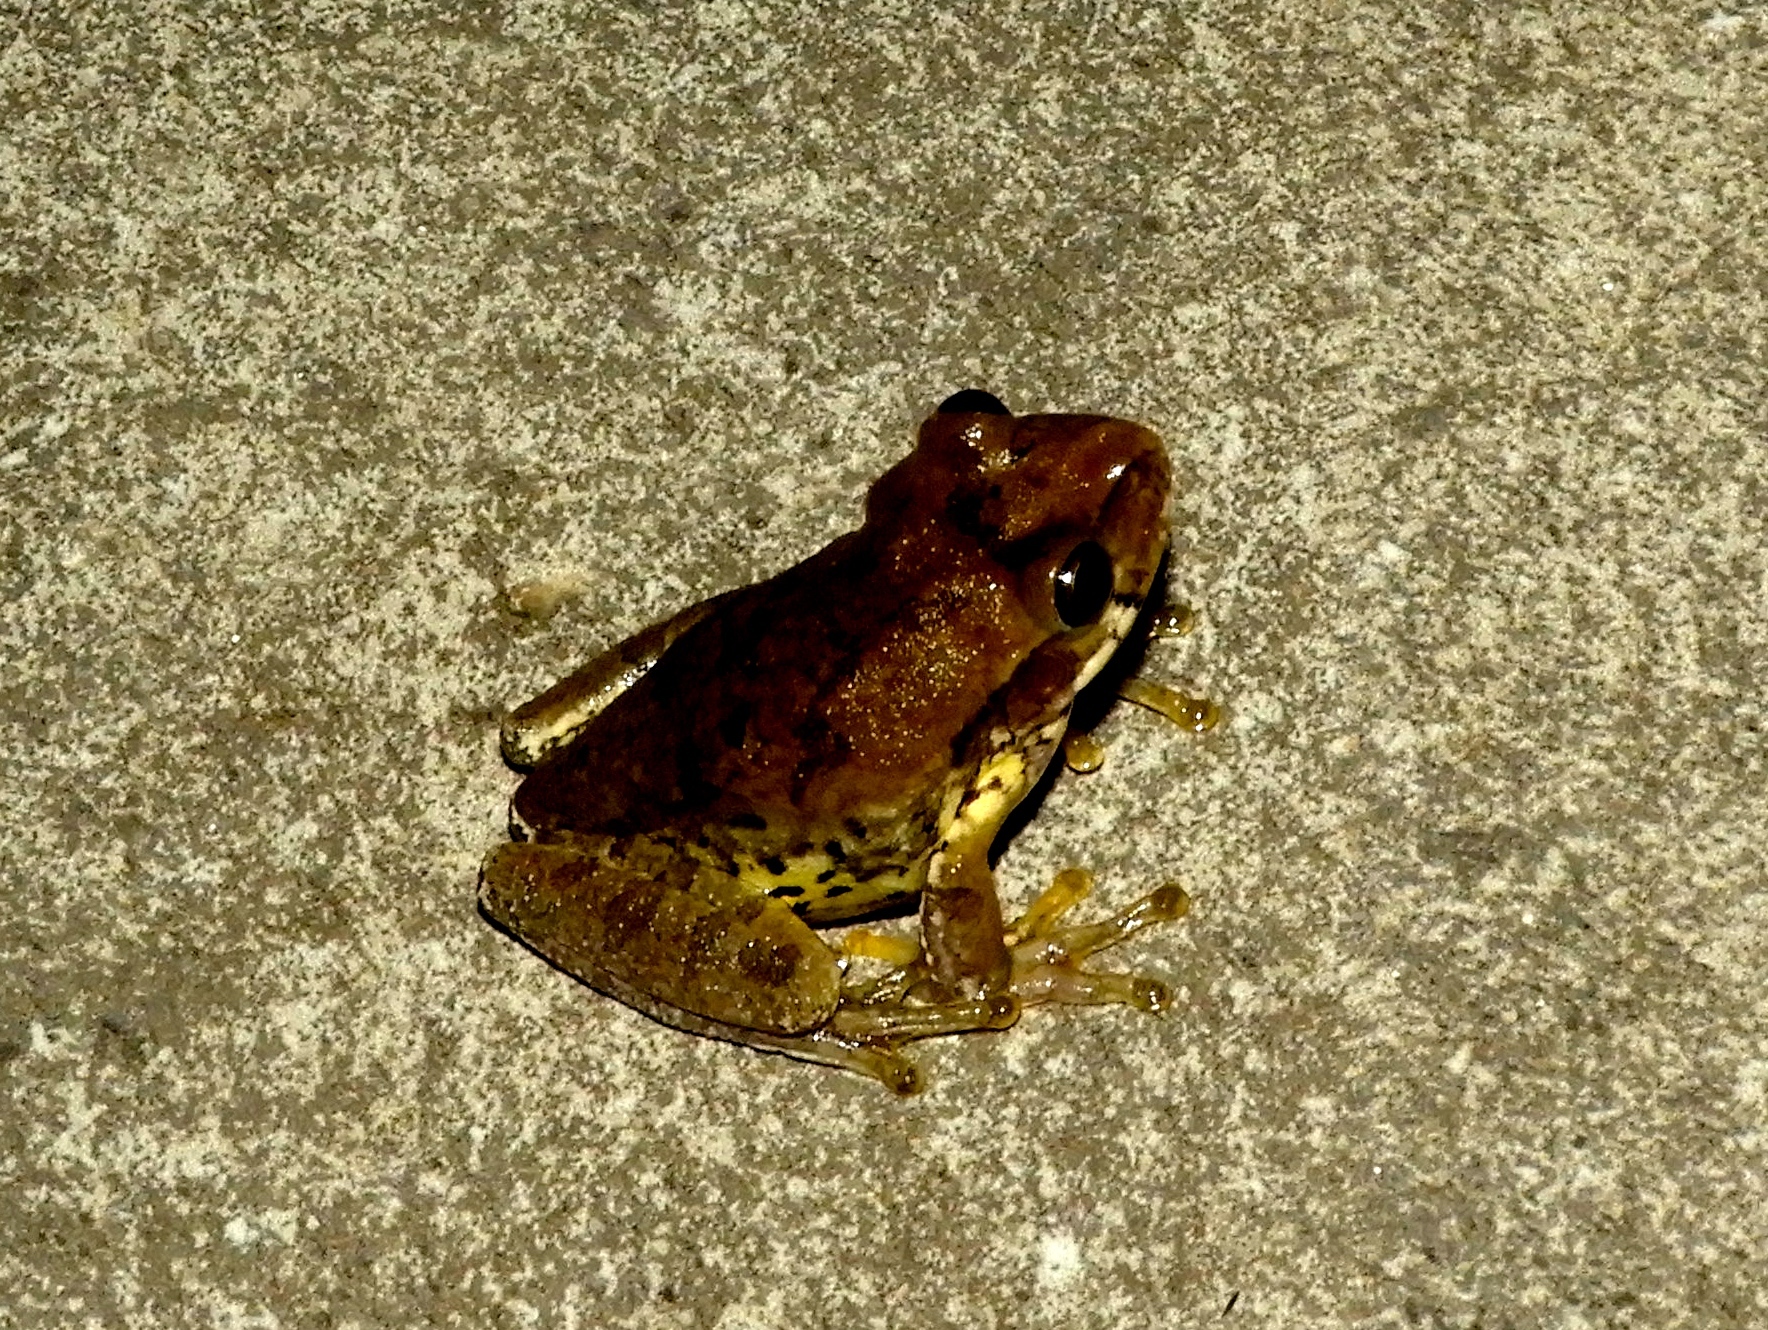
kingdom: Animalia
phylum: Chordata
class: Amphibia
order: Anura
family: Hylidae
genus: Smilisca
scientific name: Smilisca baudinii
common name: Mexican smilisca
